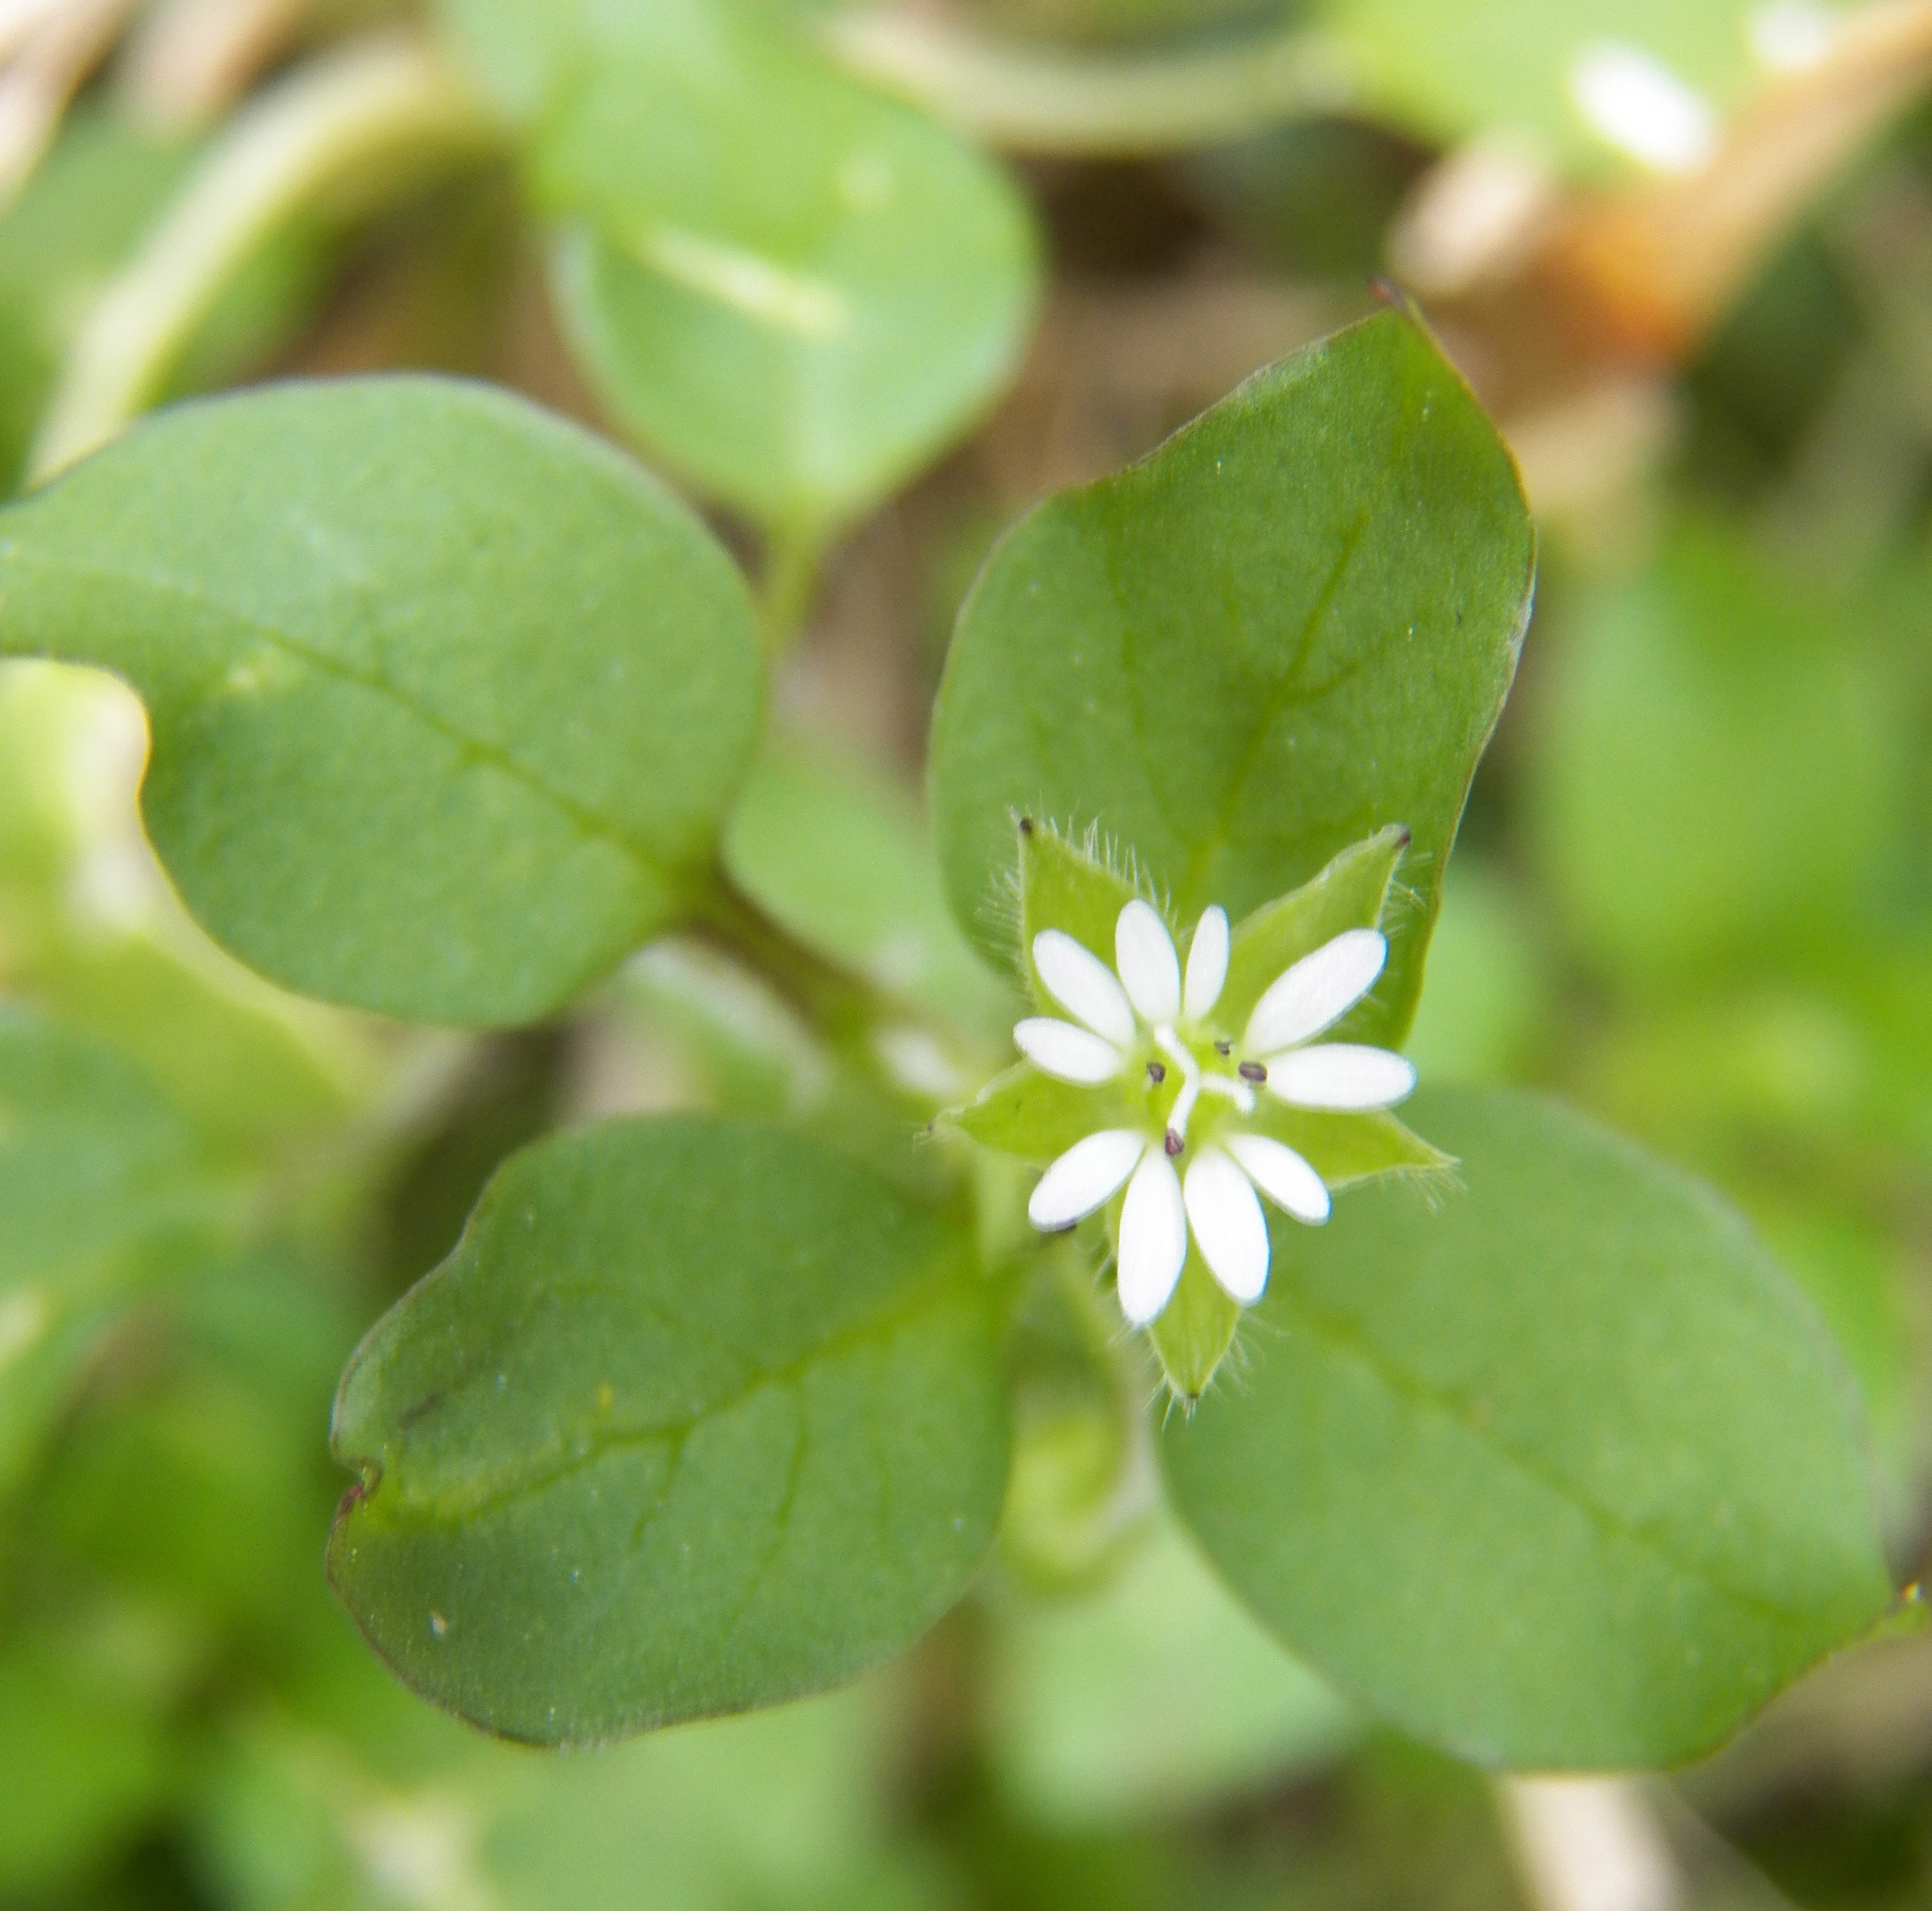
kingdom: Plantae
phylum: Tracheophyta
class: Magnoliopsida
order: Caryophyllales
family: Caryophyllaceae
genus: Stellaria
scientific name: Stellaria media
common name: Common chickweed
